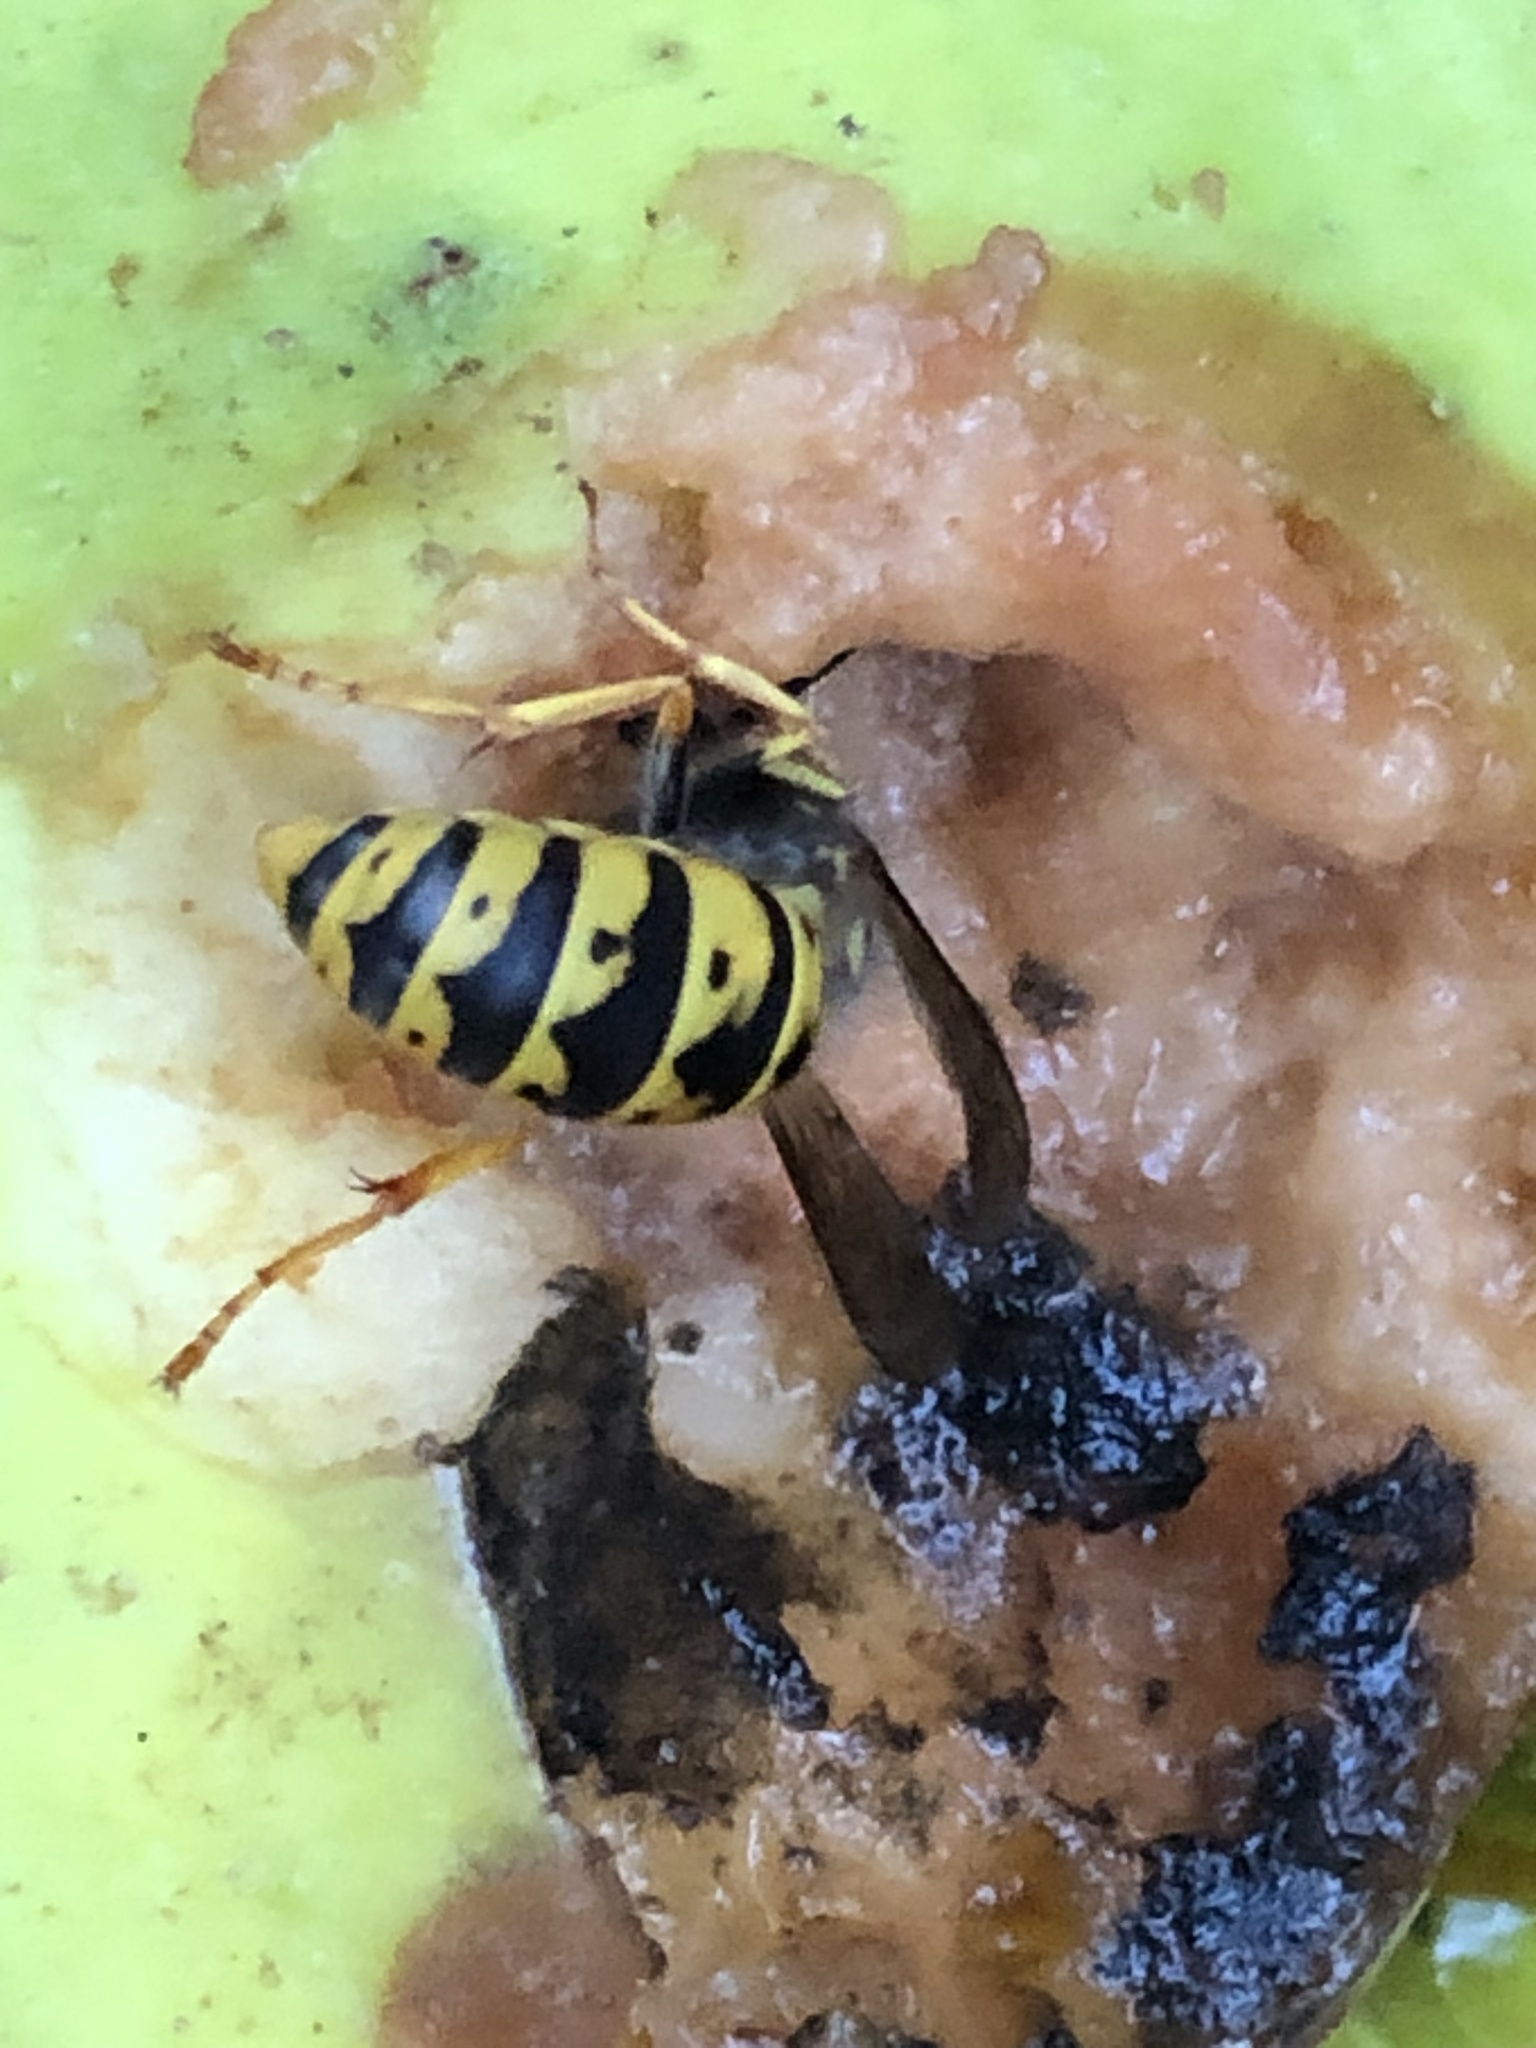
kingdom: Animalia
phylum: Arthropoda
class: Insecta
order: Hymenoptera
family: Vespidae
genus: Vespula
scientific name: Vespula germanica
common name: German wasp
